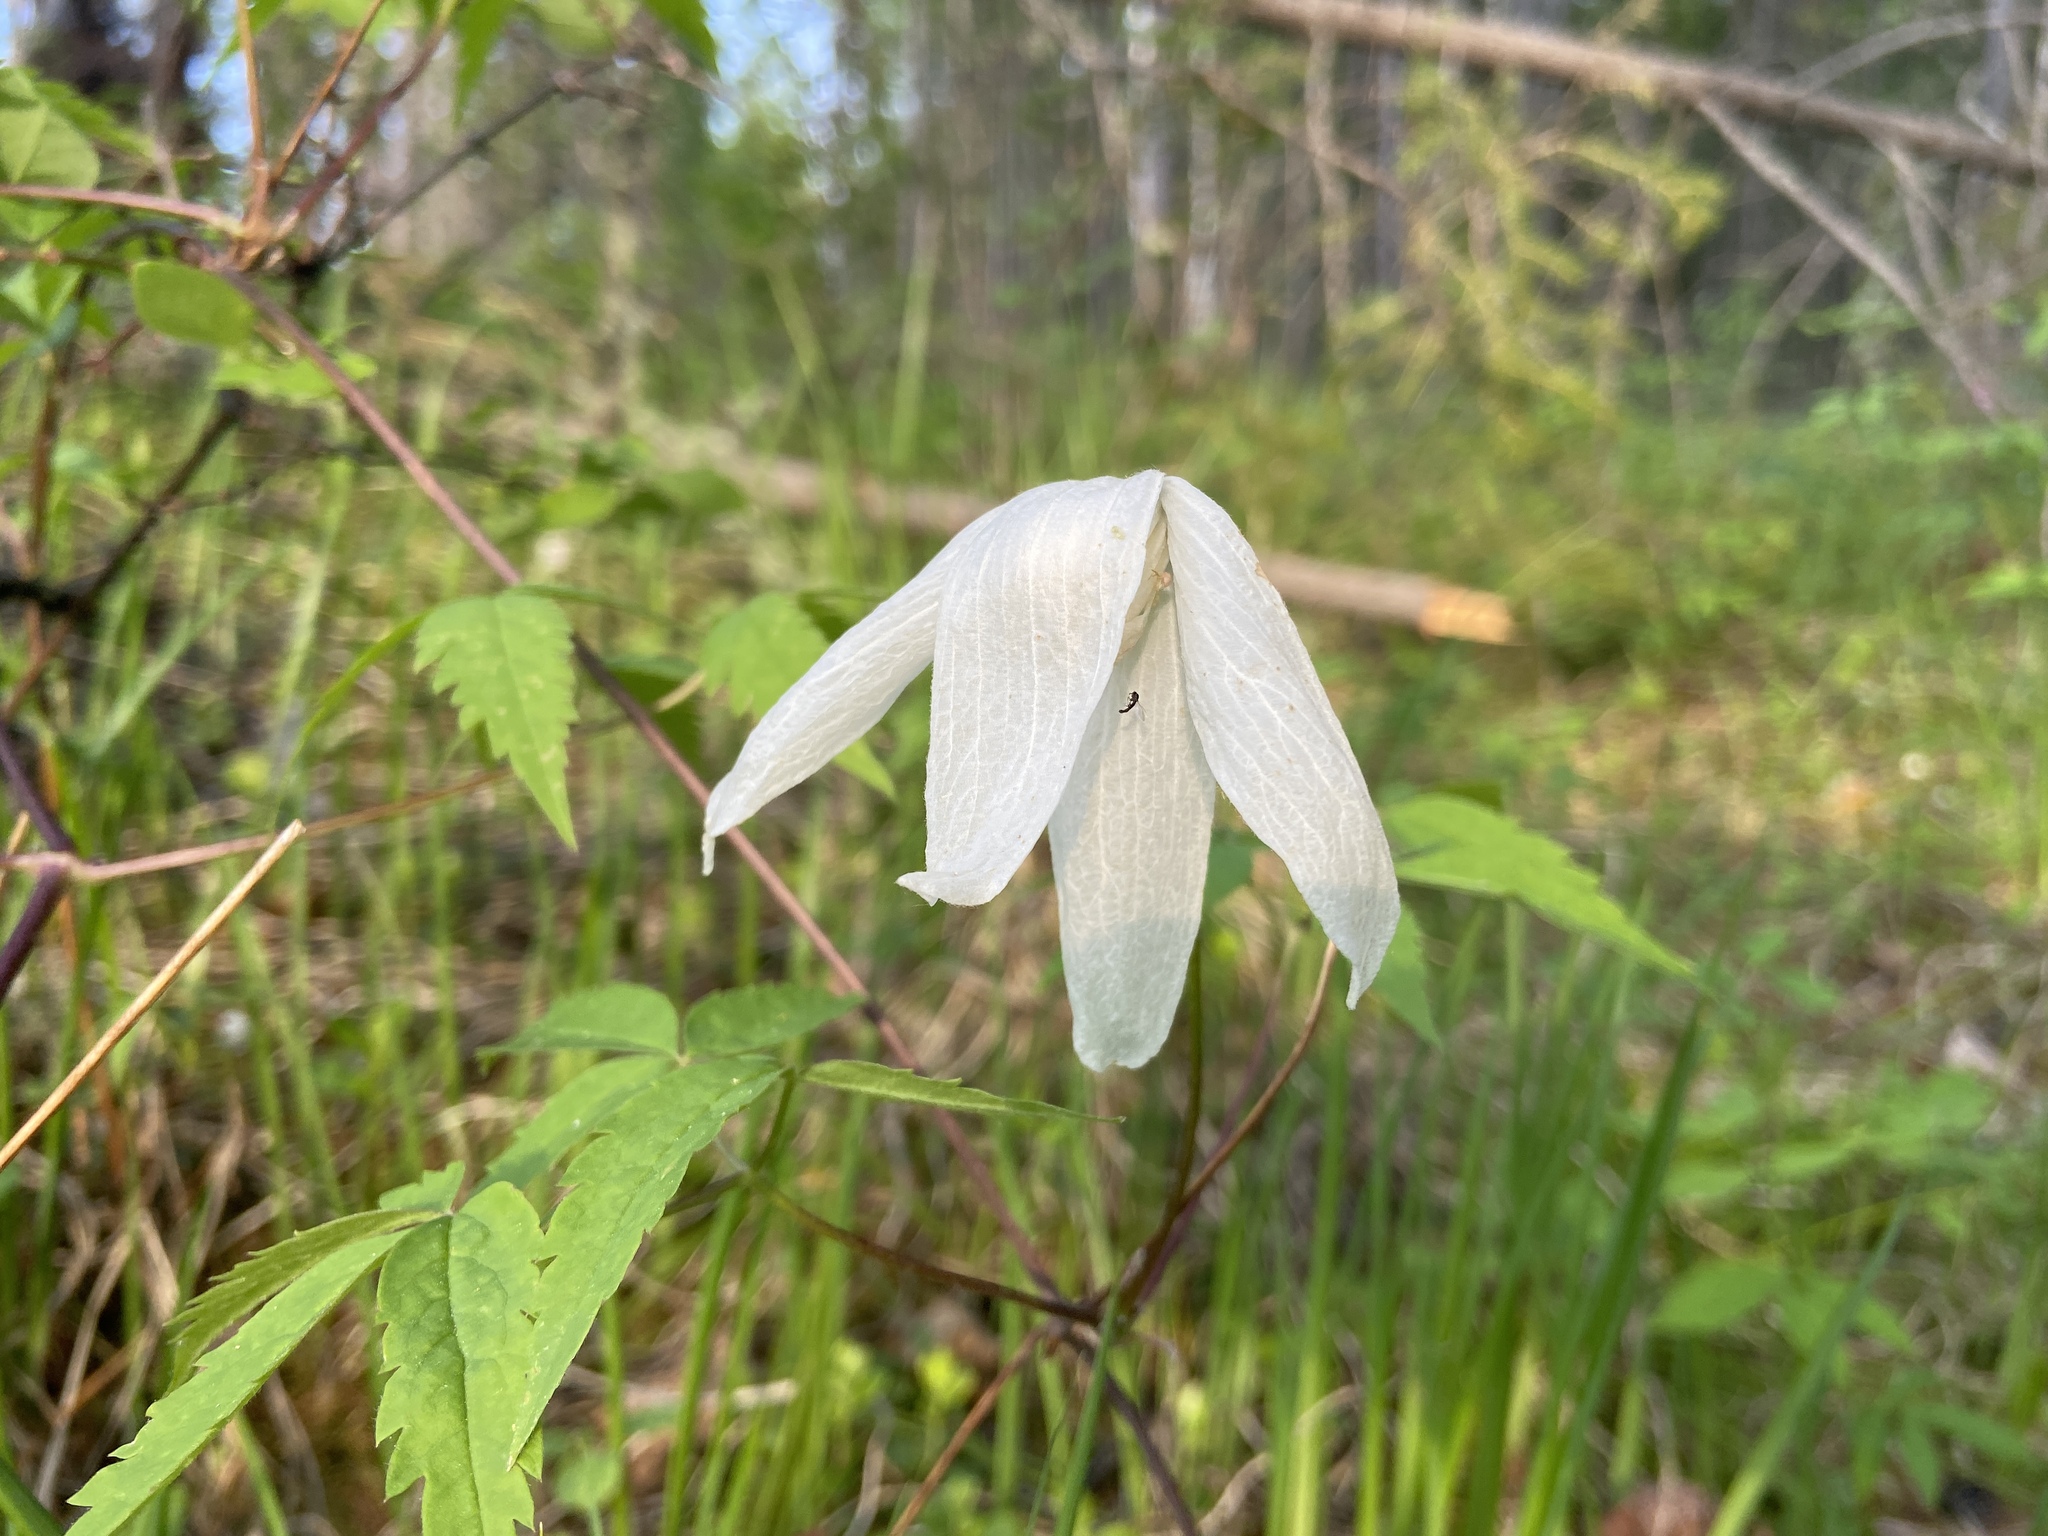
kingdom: Plantae
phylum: Tracheophyta
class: Magnoliopsida
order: Ranunculales
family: Ranunculaceae
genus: Clematis
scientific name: Clematis sibirica
